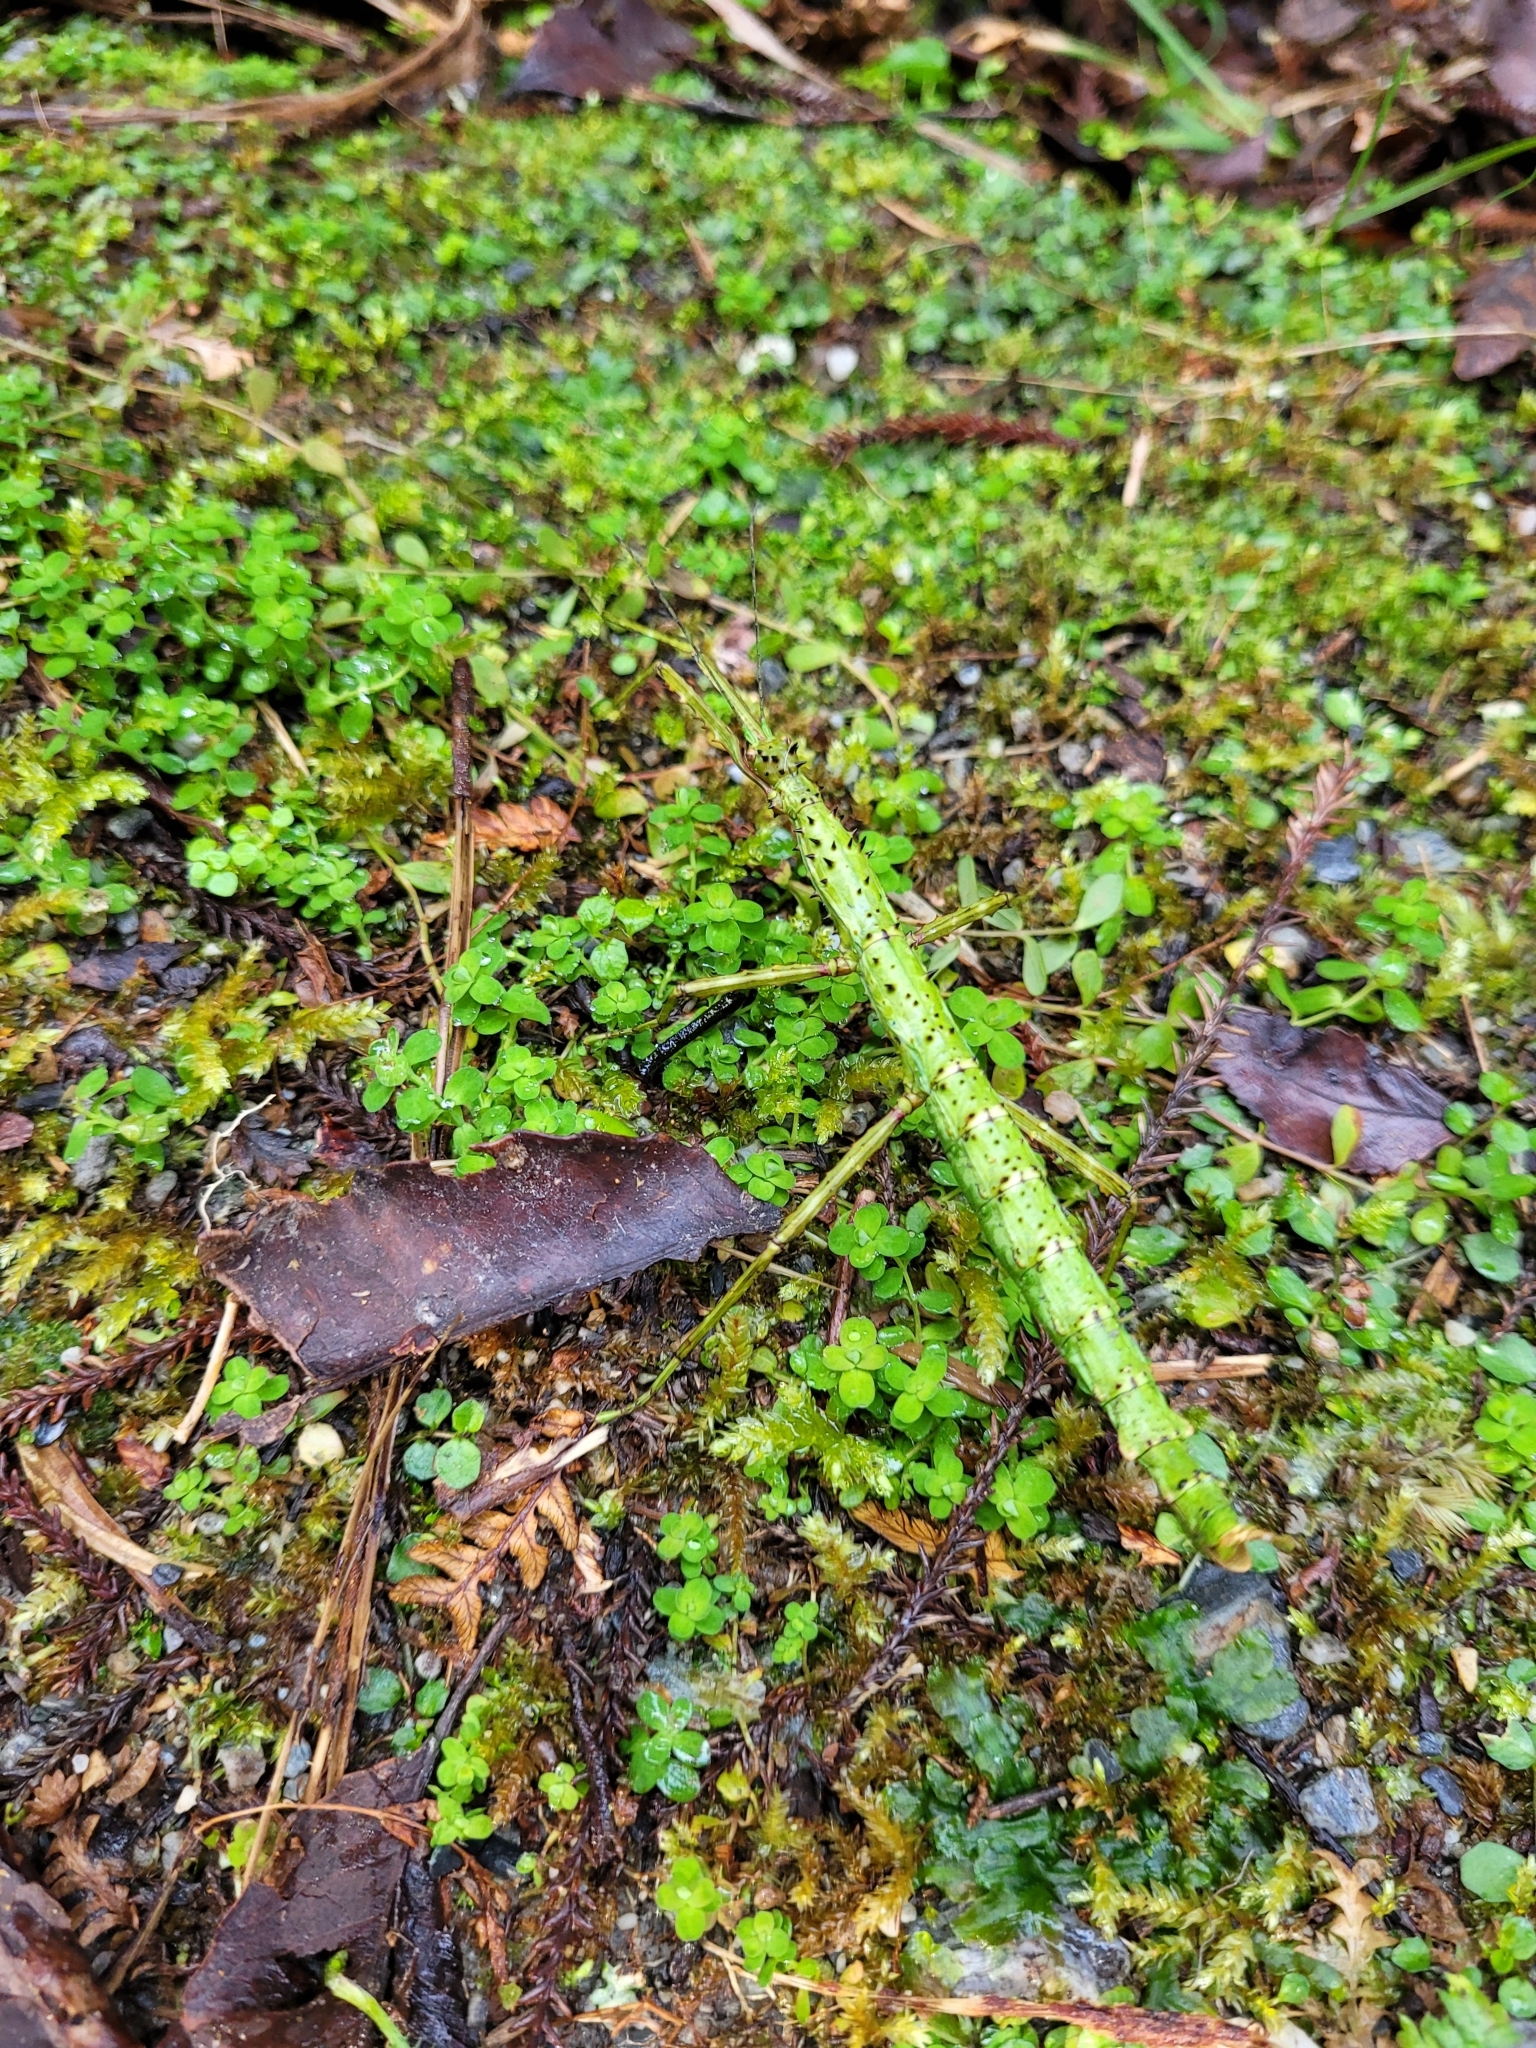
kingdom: Animalia
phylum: Arthropoda
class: Insecta
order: Phasmida
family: Phasmatidae
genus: Acanthoxyla
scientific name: Acanthoxyla prasina
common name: Black-spined stick insect
